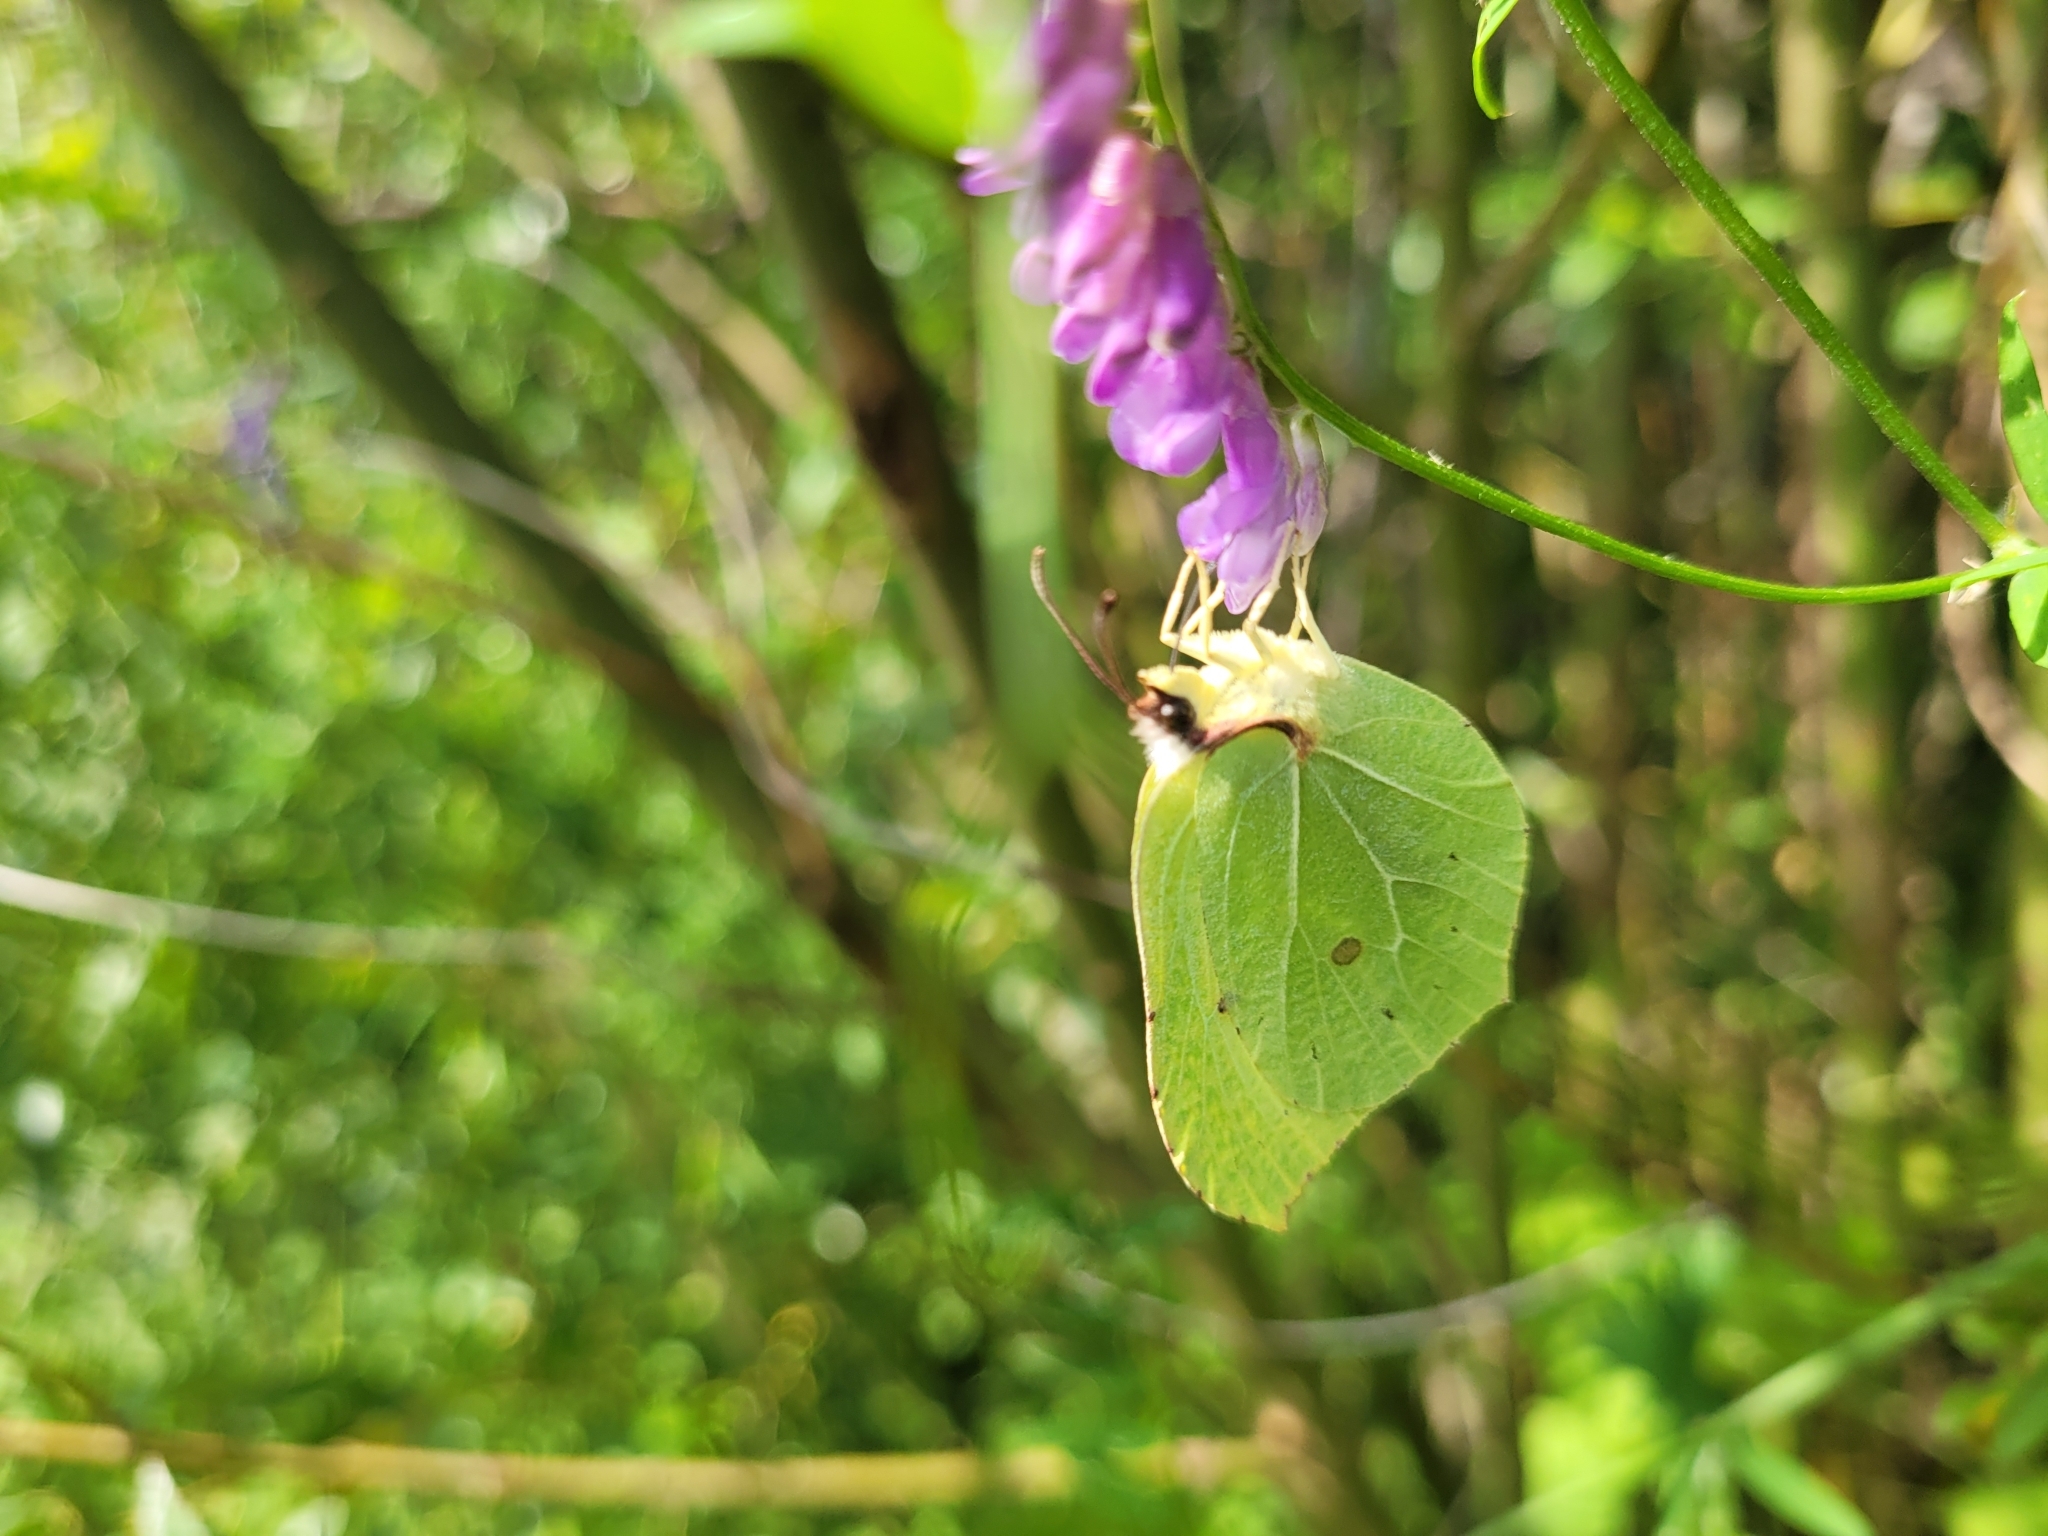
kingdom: Animalia
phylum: Arthropoda
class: Insecta
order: Lepidoptera
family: Pieridae
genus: Gonepteryx
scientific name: Gonepteryx rhamni
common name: Brimstone
